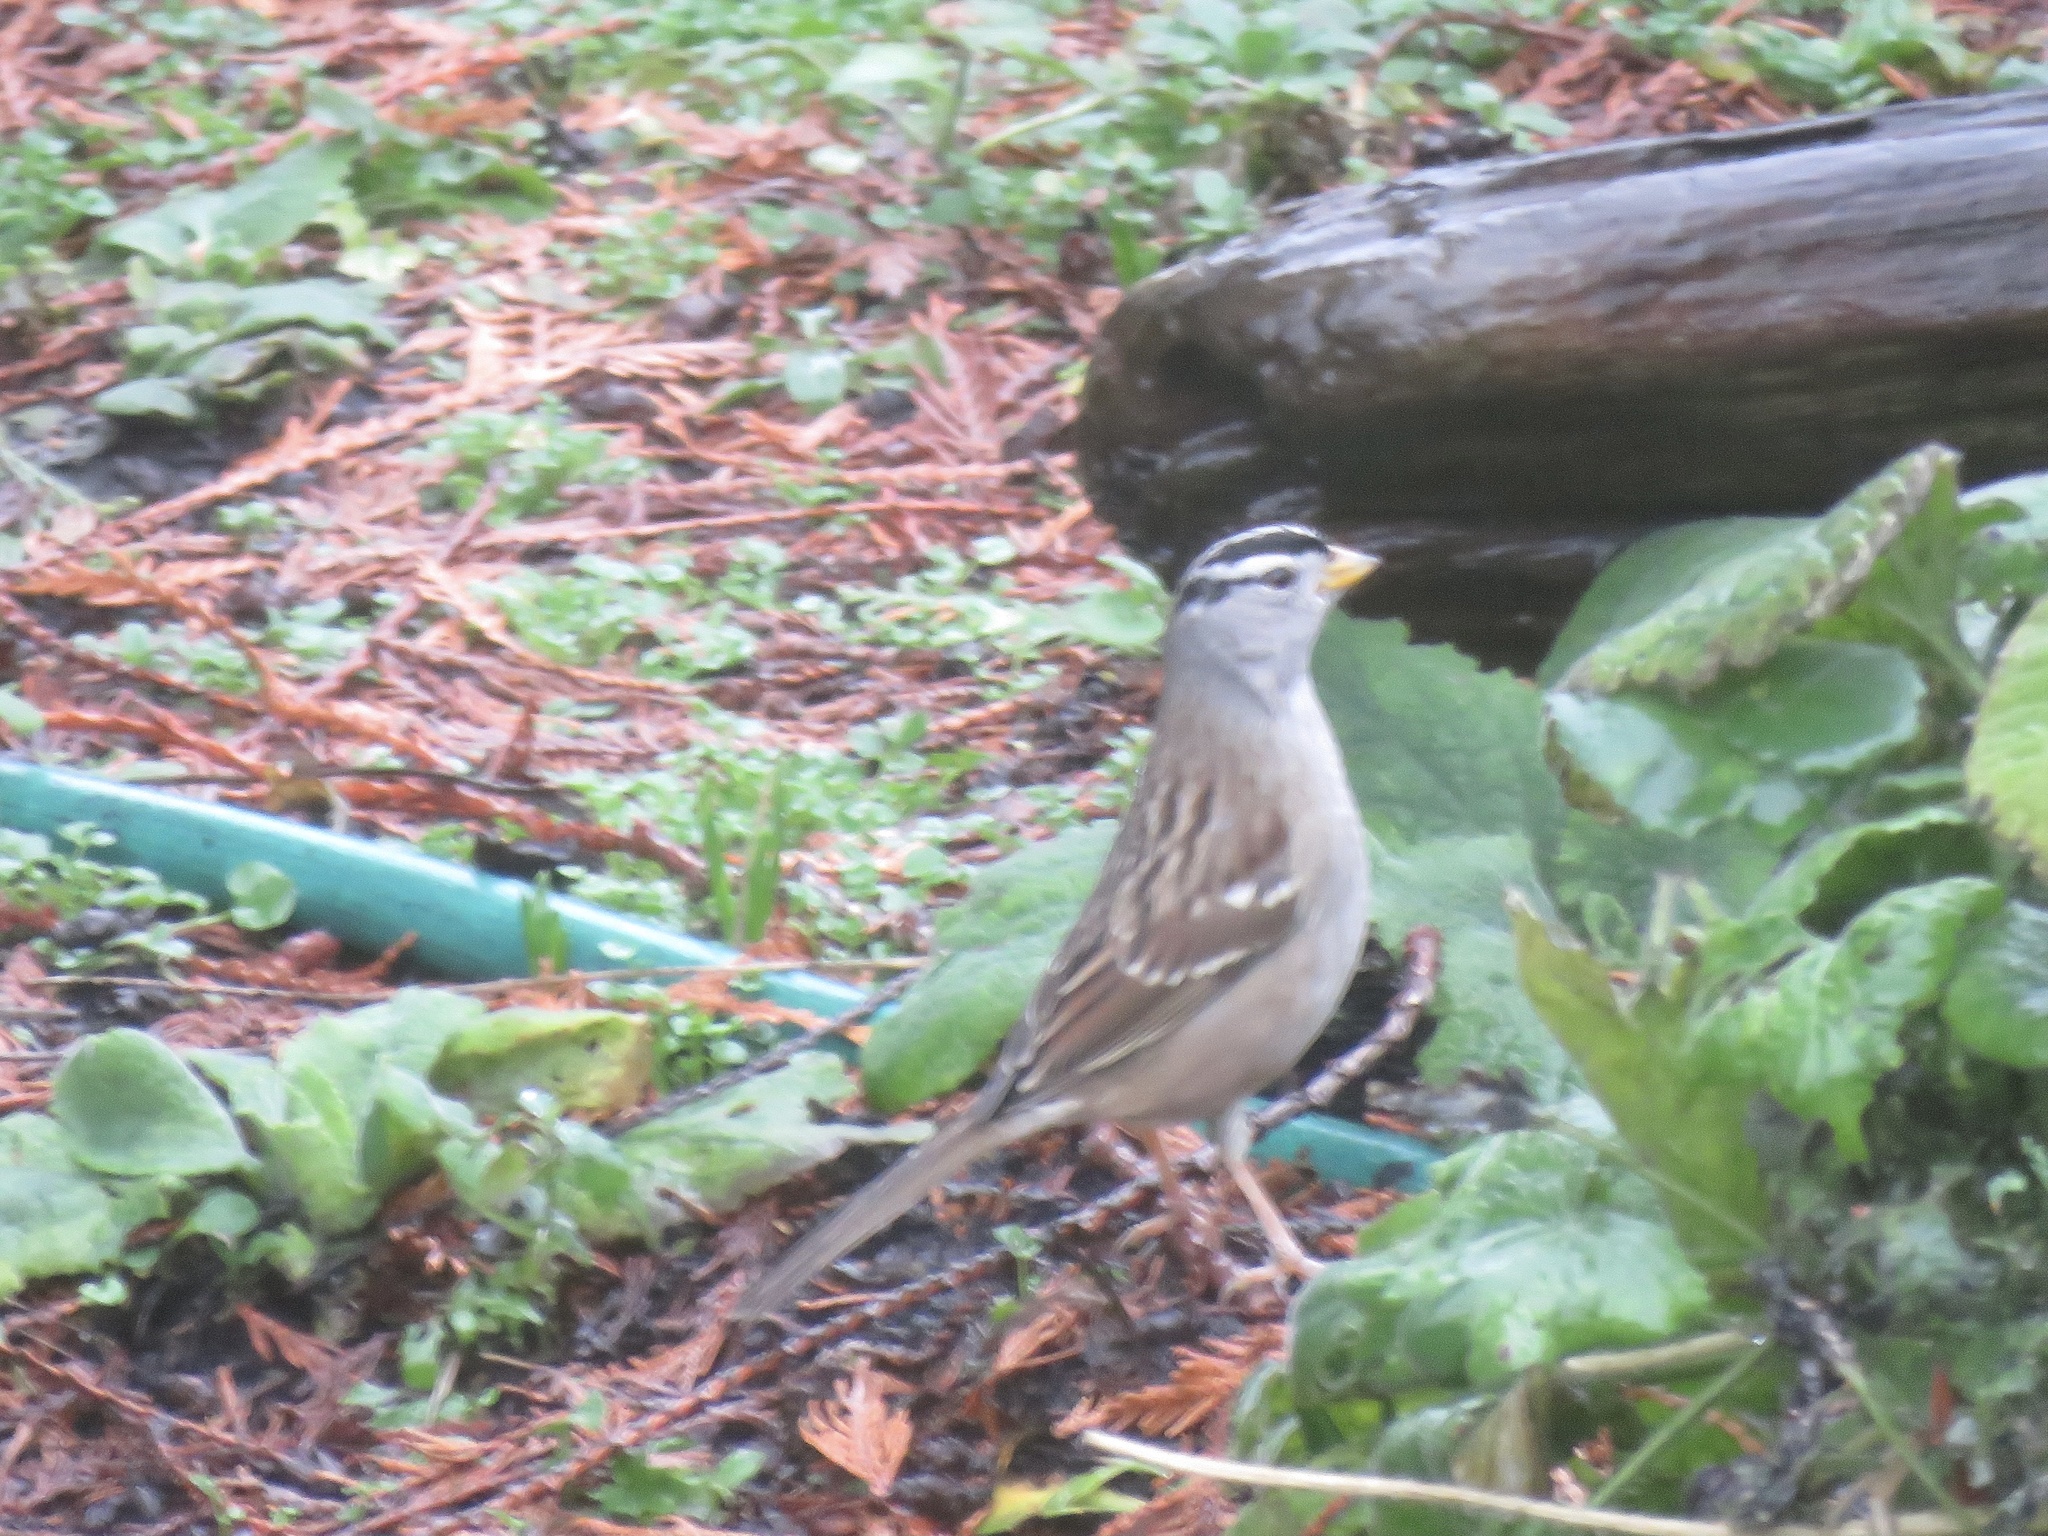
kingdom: Animalia
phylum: Chordata
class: Aves
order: Passeriformes
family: Passerellidae
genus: Zonotrichia
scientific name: Zonotrichia leucophrys
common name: White-crowned sparrow
